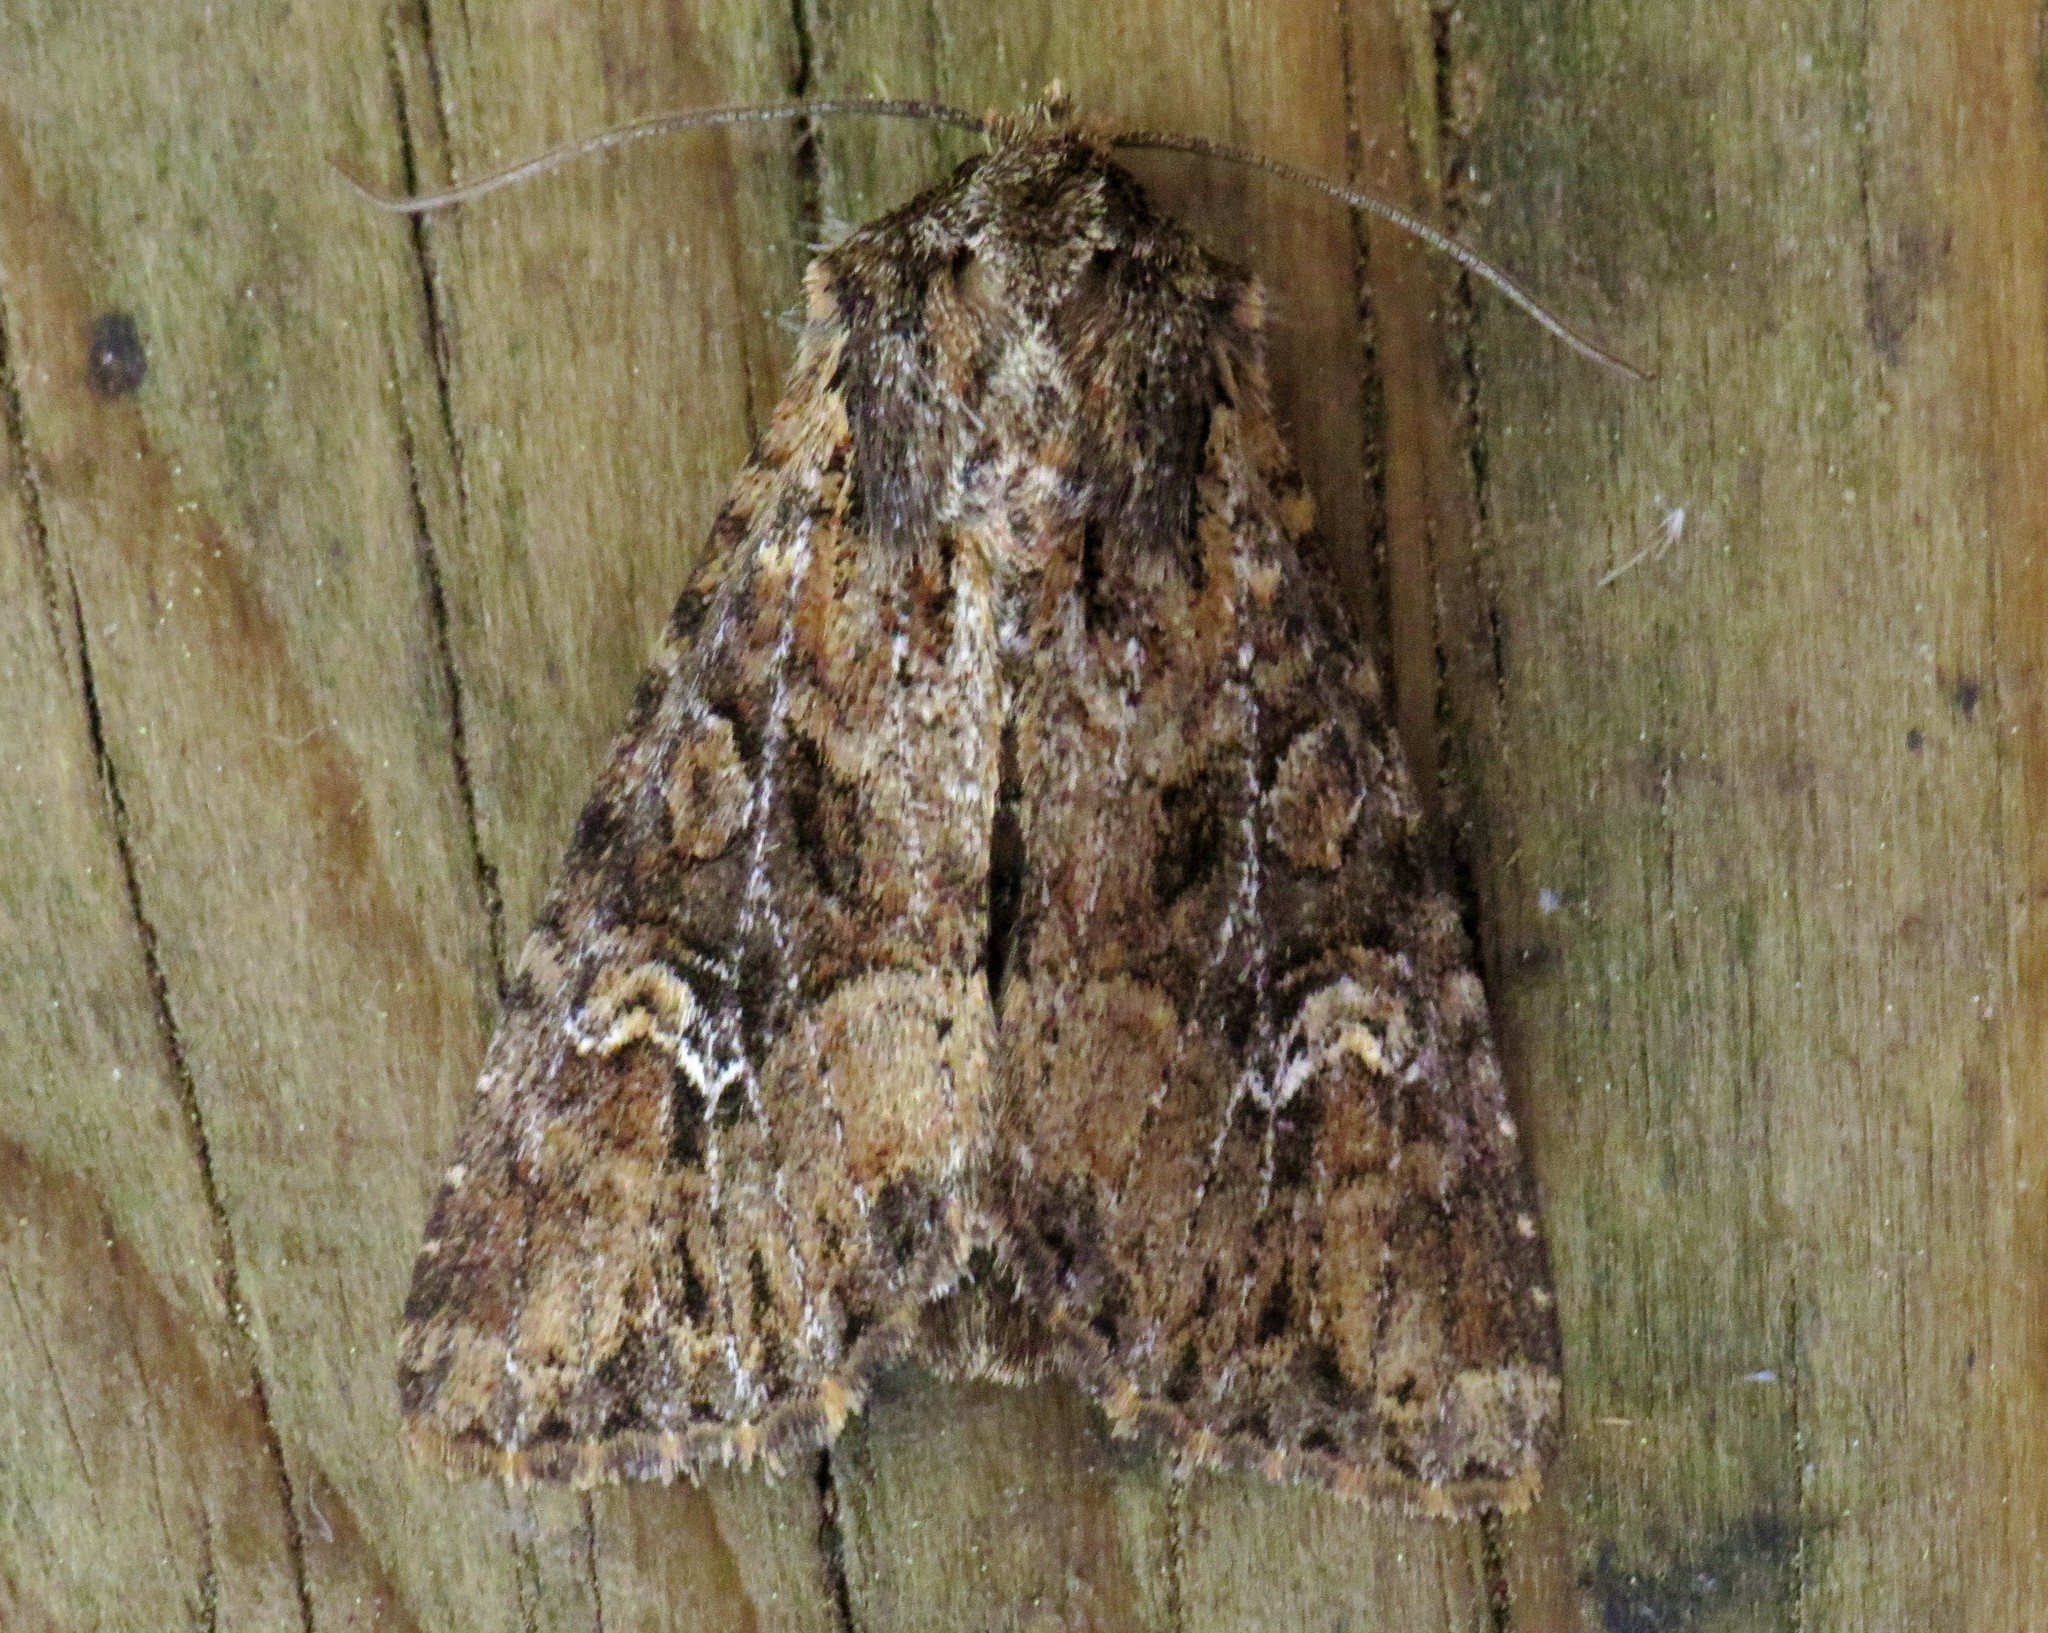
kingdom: Animalia
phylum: Arthropoda
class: Insecta
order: Lepidoptera
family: Noctuidae
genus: Apamea
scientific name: Apamea unanimis
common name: Small clouded brindle
